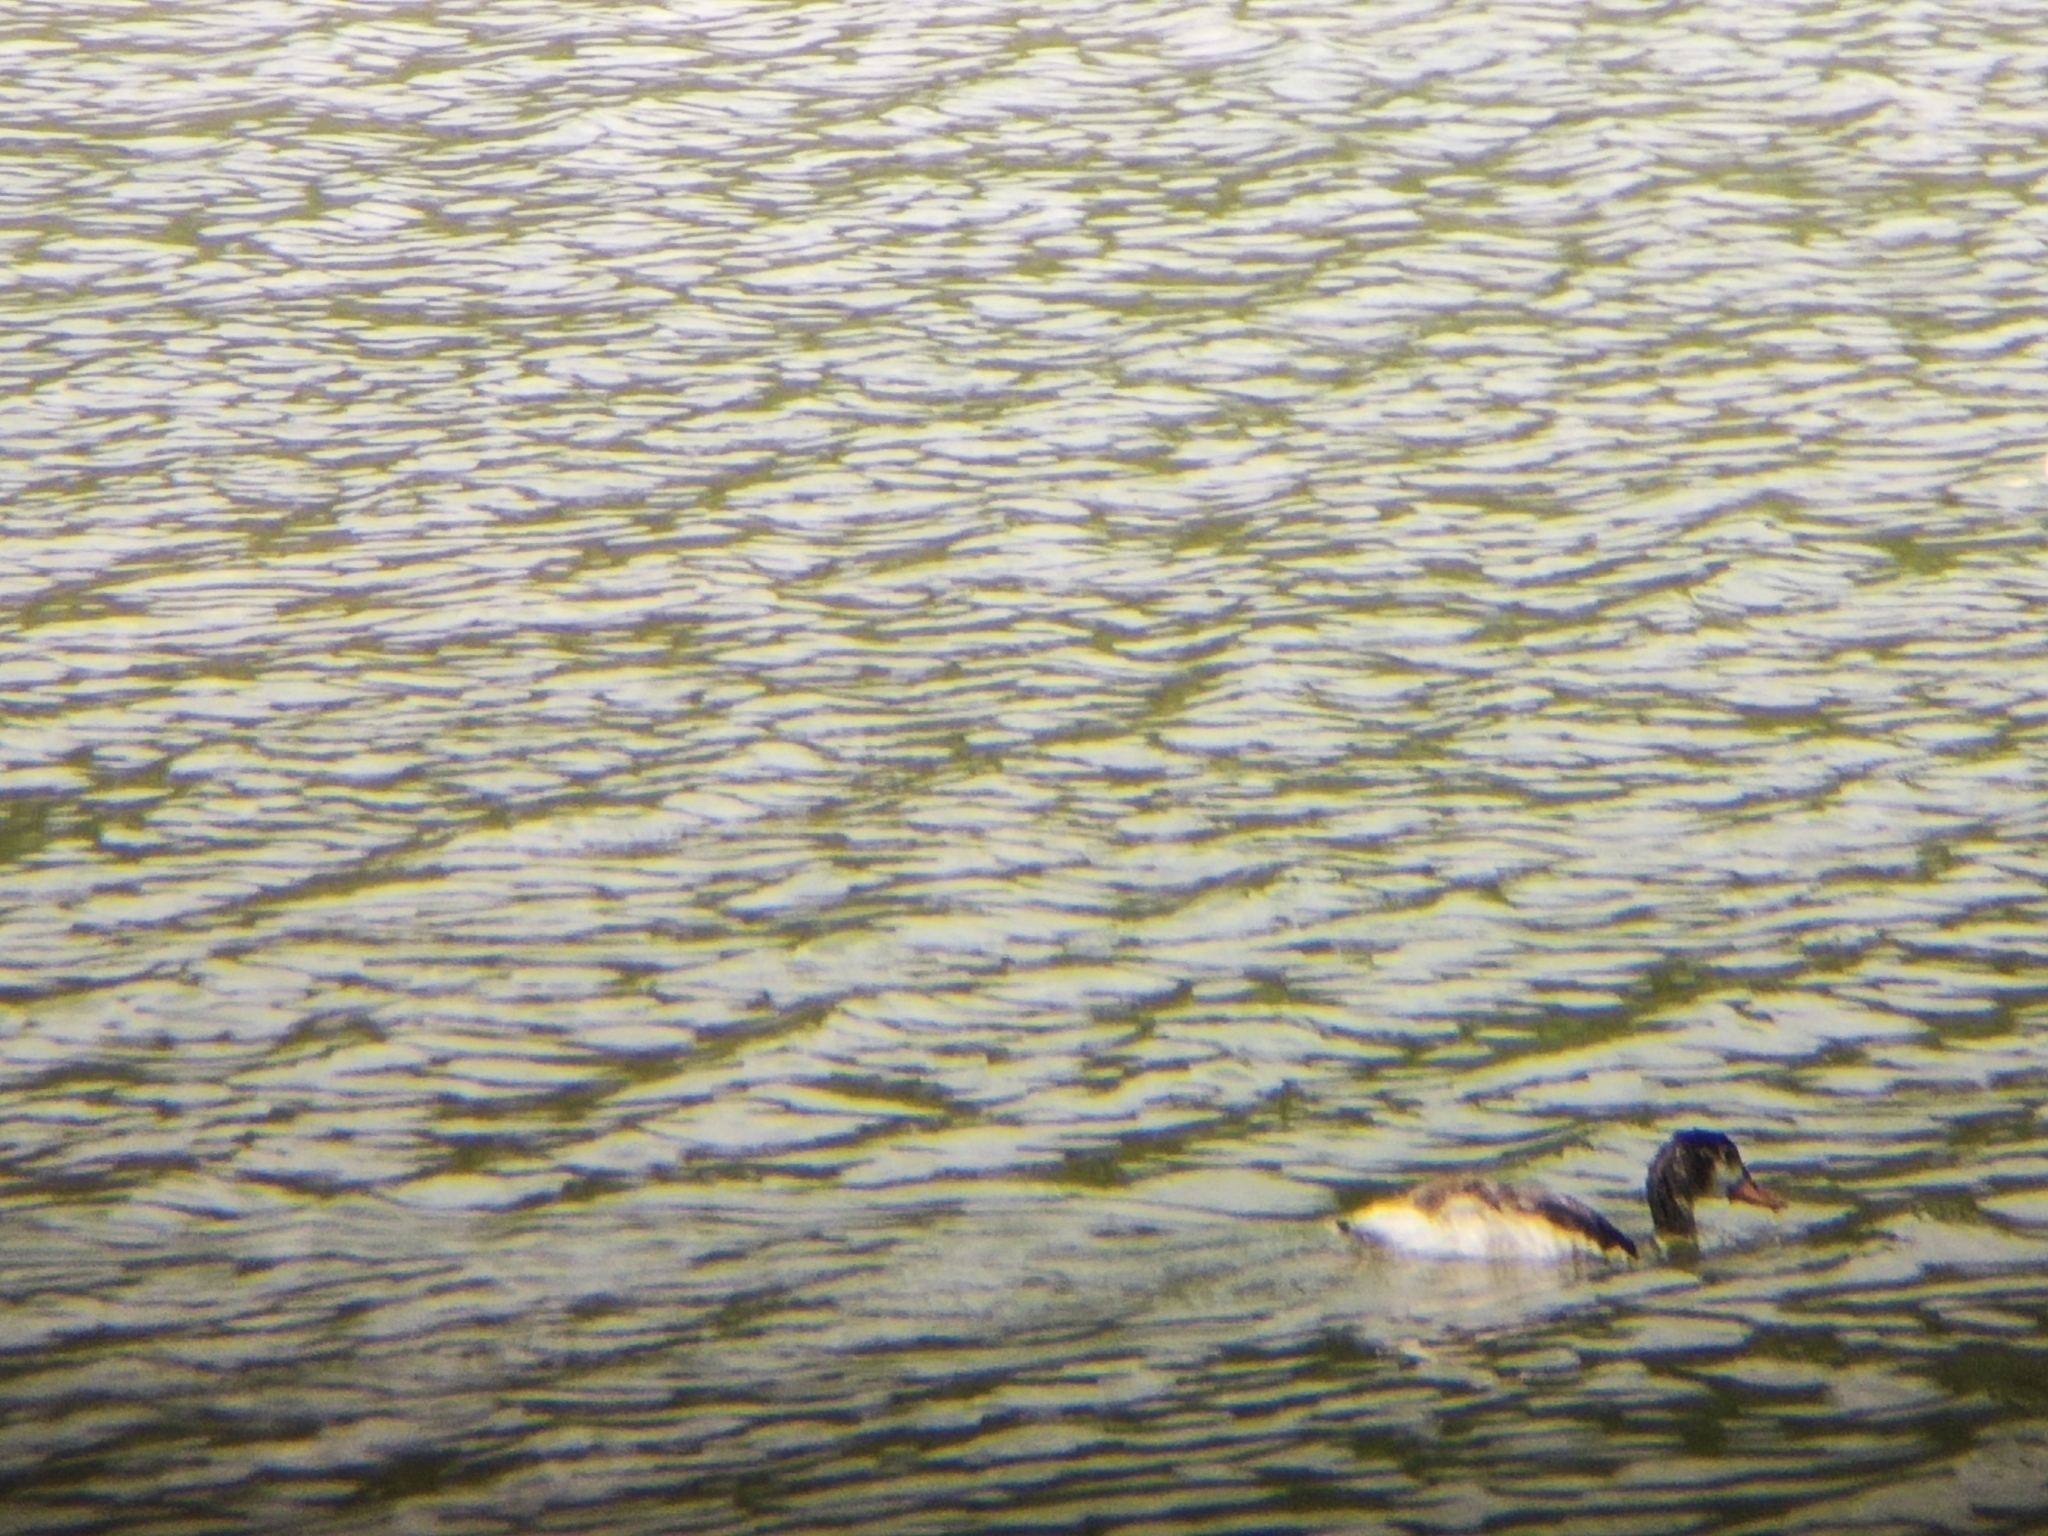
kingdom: Animalia
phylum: Chordata
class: Aves
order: Anseriformes
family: Anatidae
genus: Tadorna
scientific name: Tadorna tadorna
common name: Common shelduck
